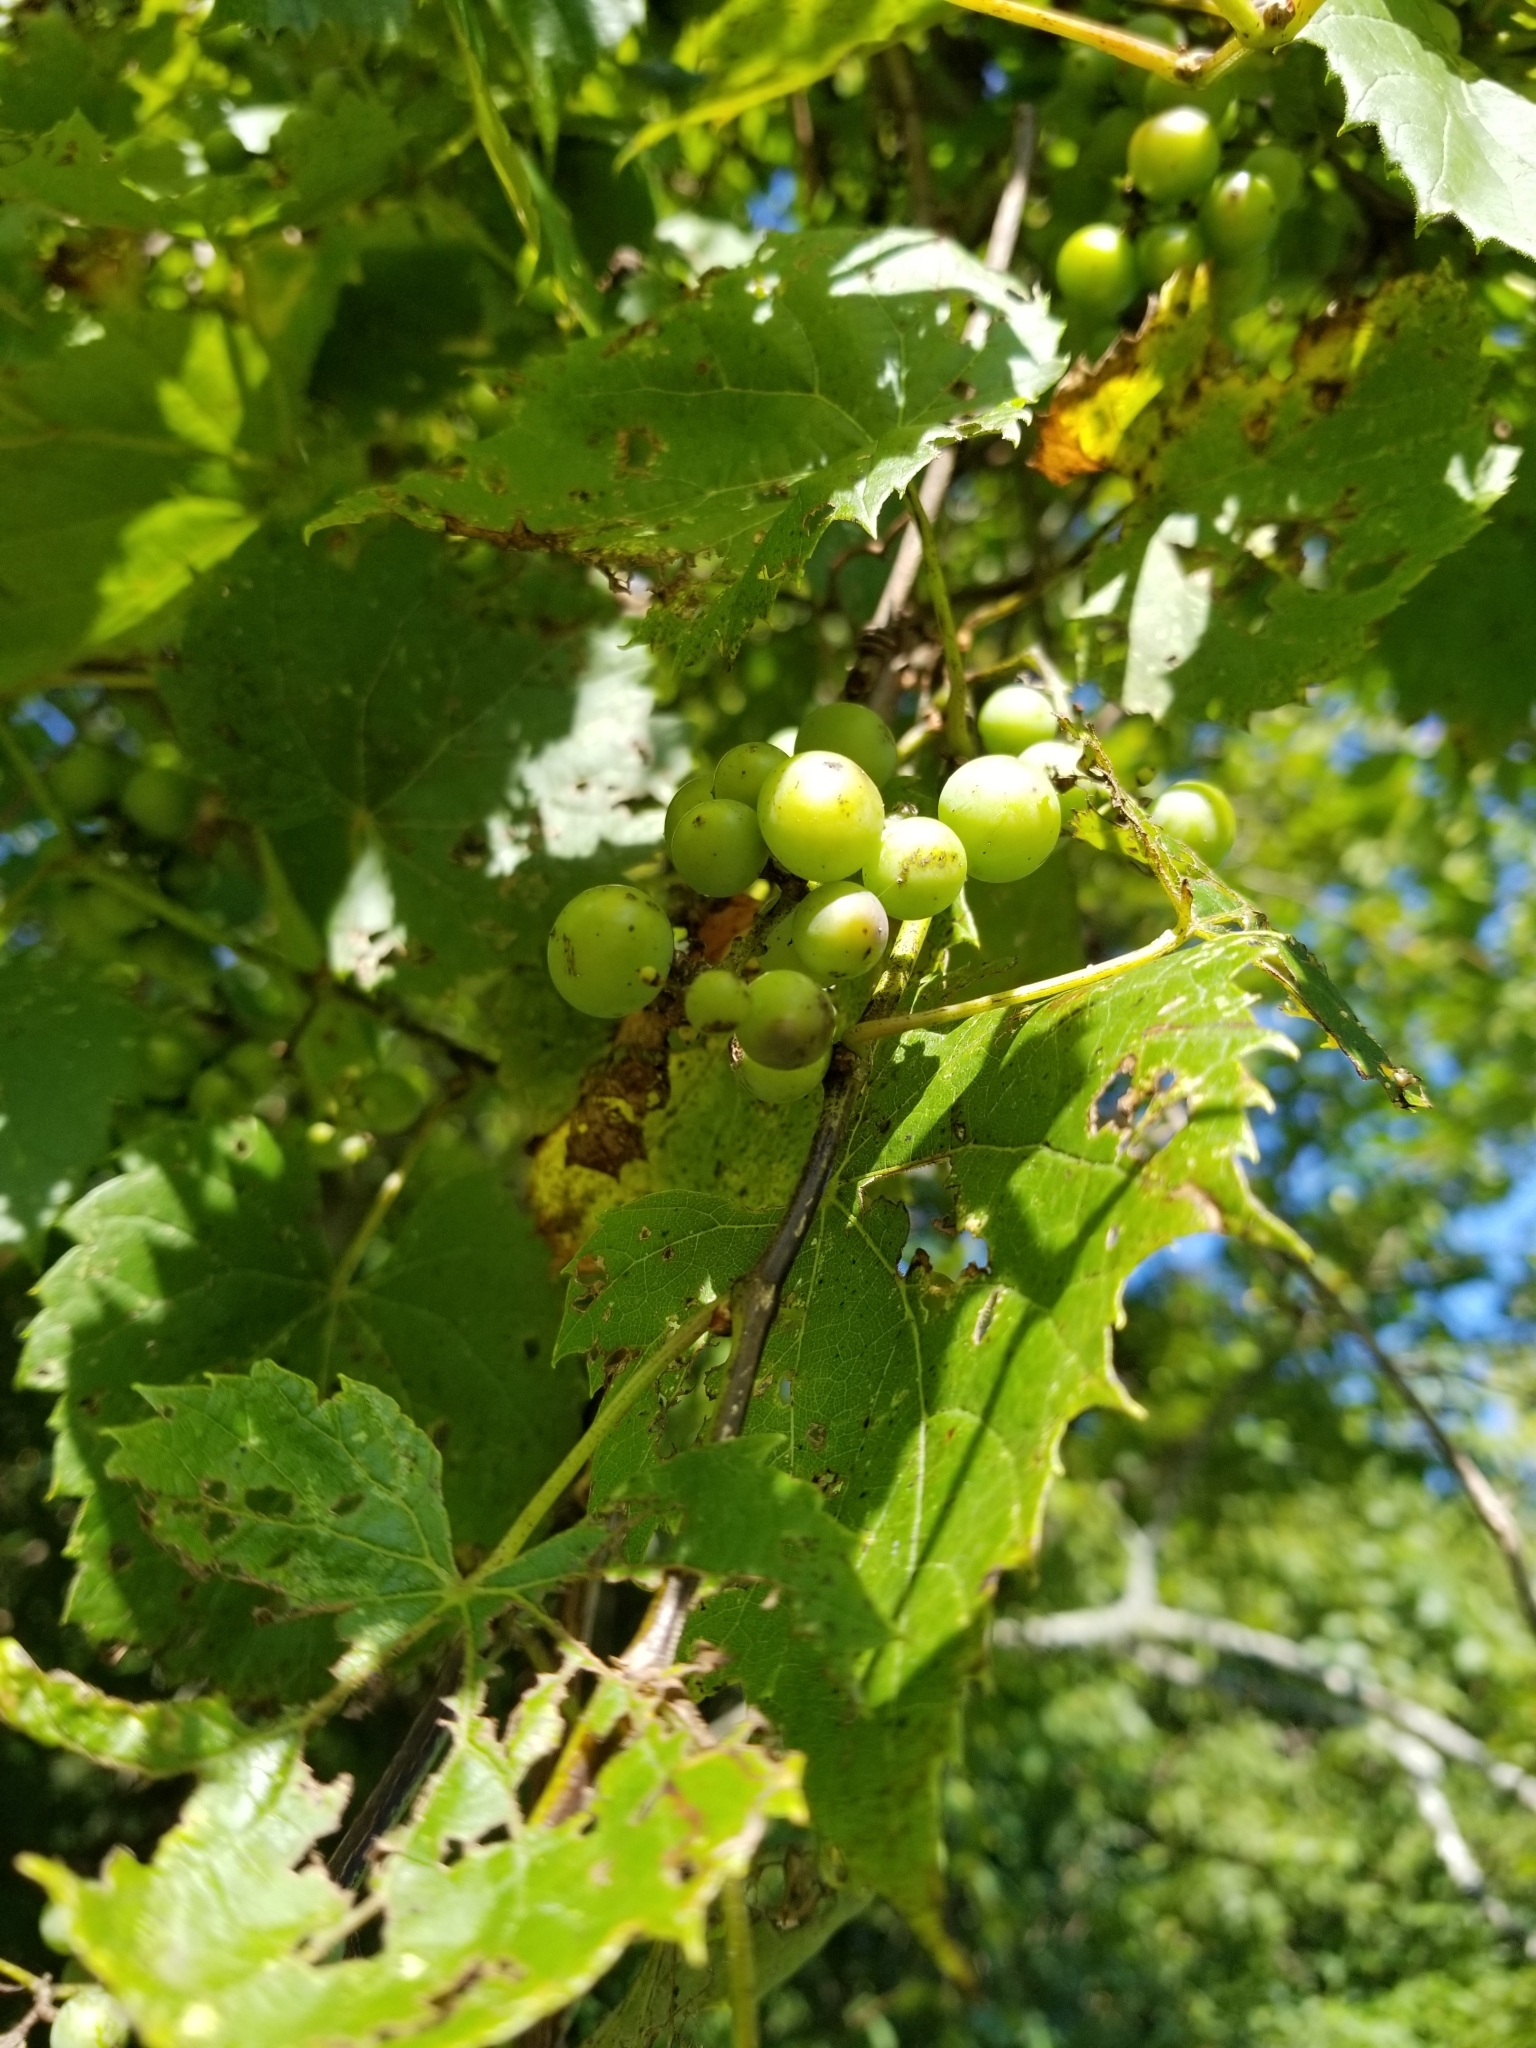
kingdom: Plantae
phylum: Tracheophyta
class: Magnoliopsida
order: Vitales
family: Vitaceae
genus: Vitis
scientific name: Vitis riparia
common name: Frost grape
